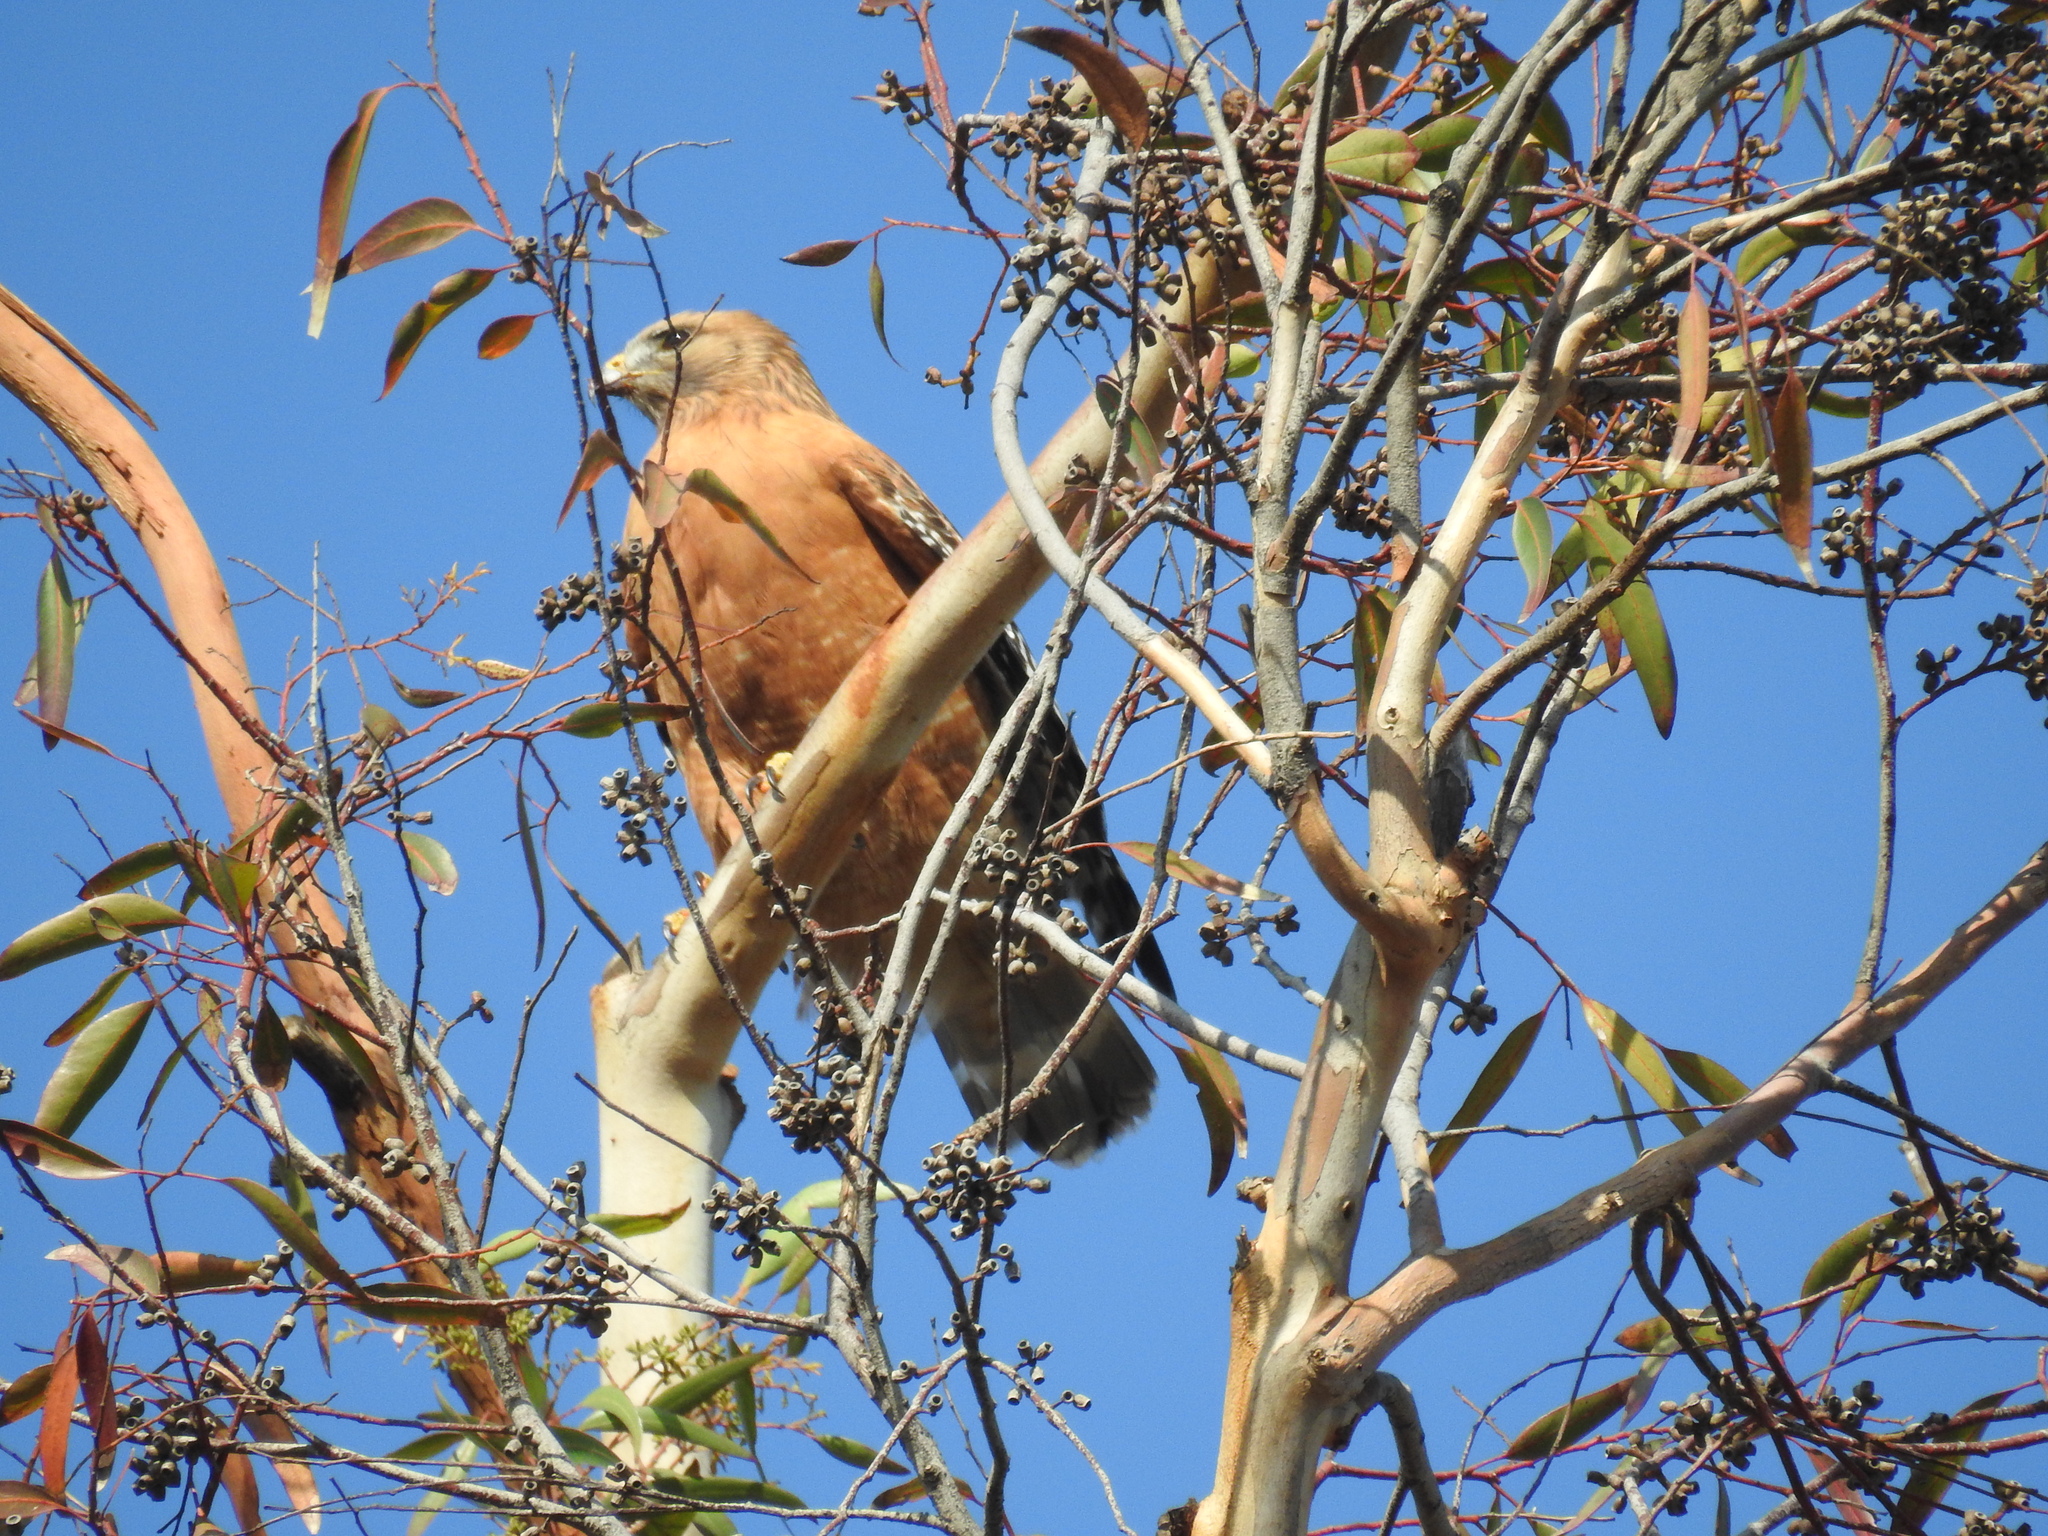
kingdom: Animalia
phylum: Chordata
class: Aves
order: Accipitriformes
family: Accipitridae
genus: Buteo
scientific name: Buteo lineatus
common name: Red-shouldered hawk
